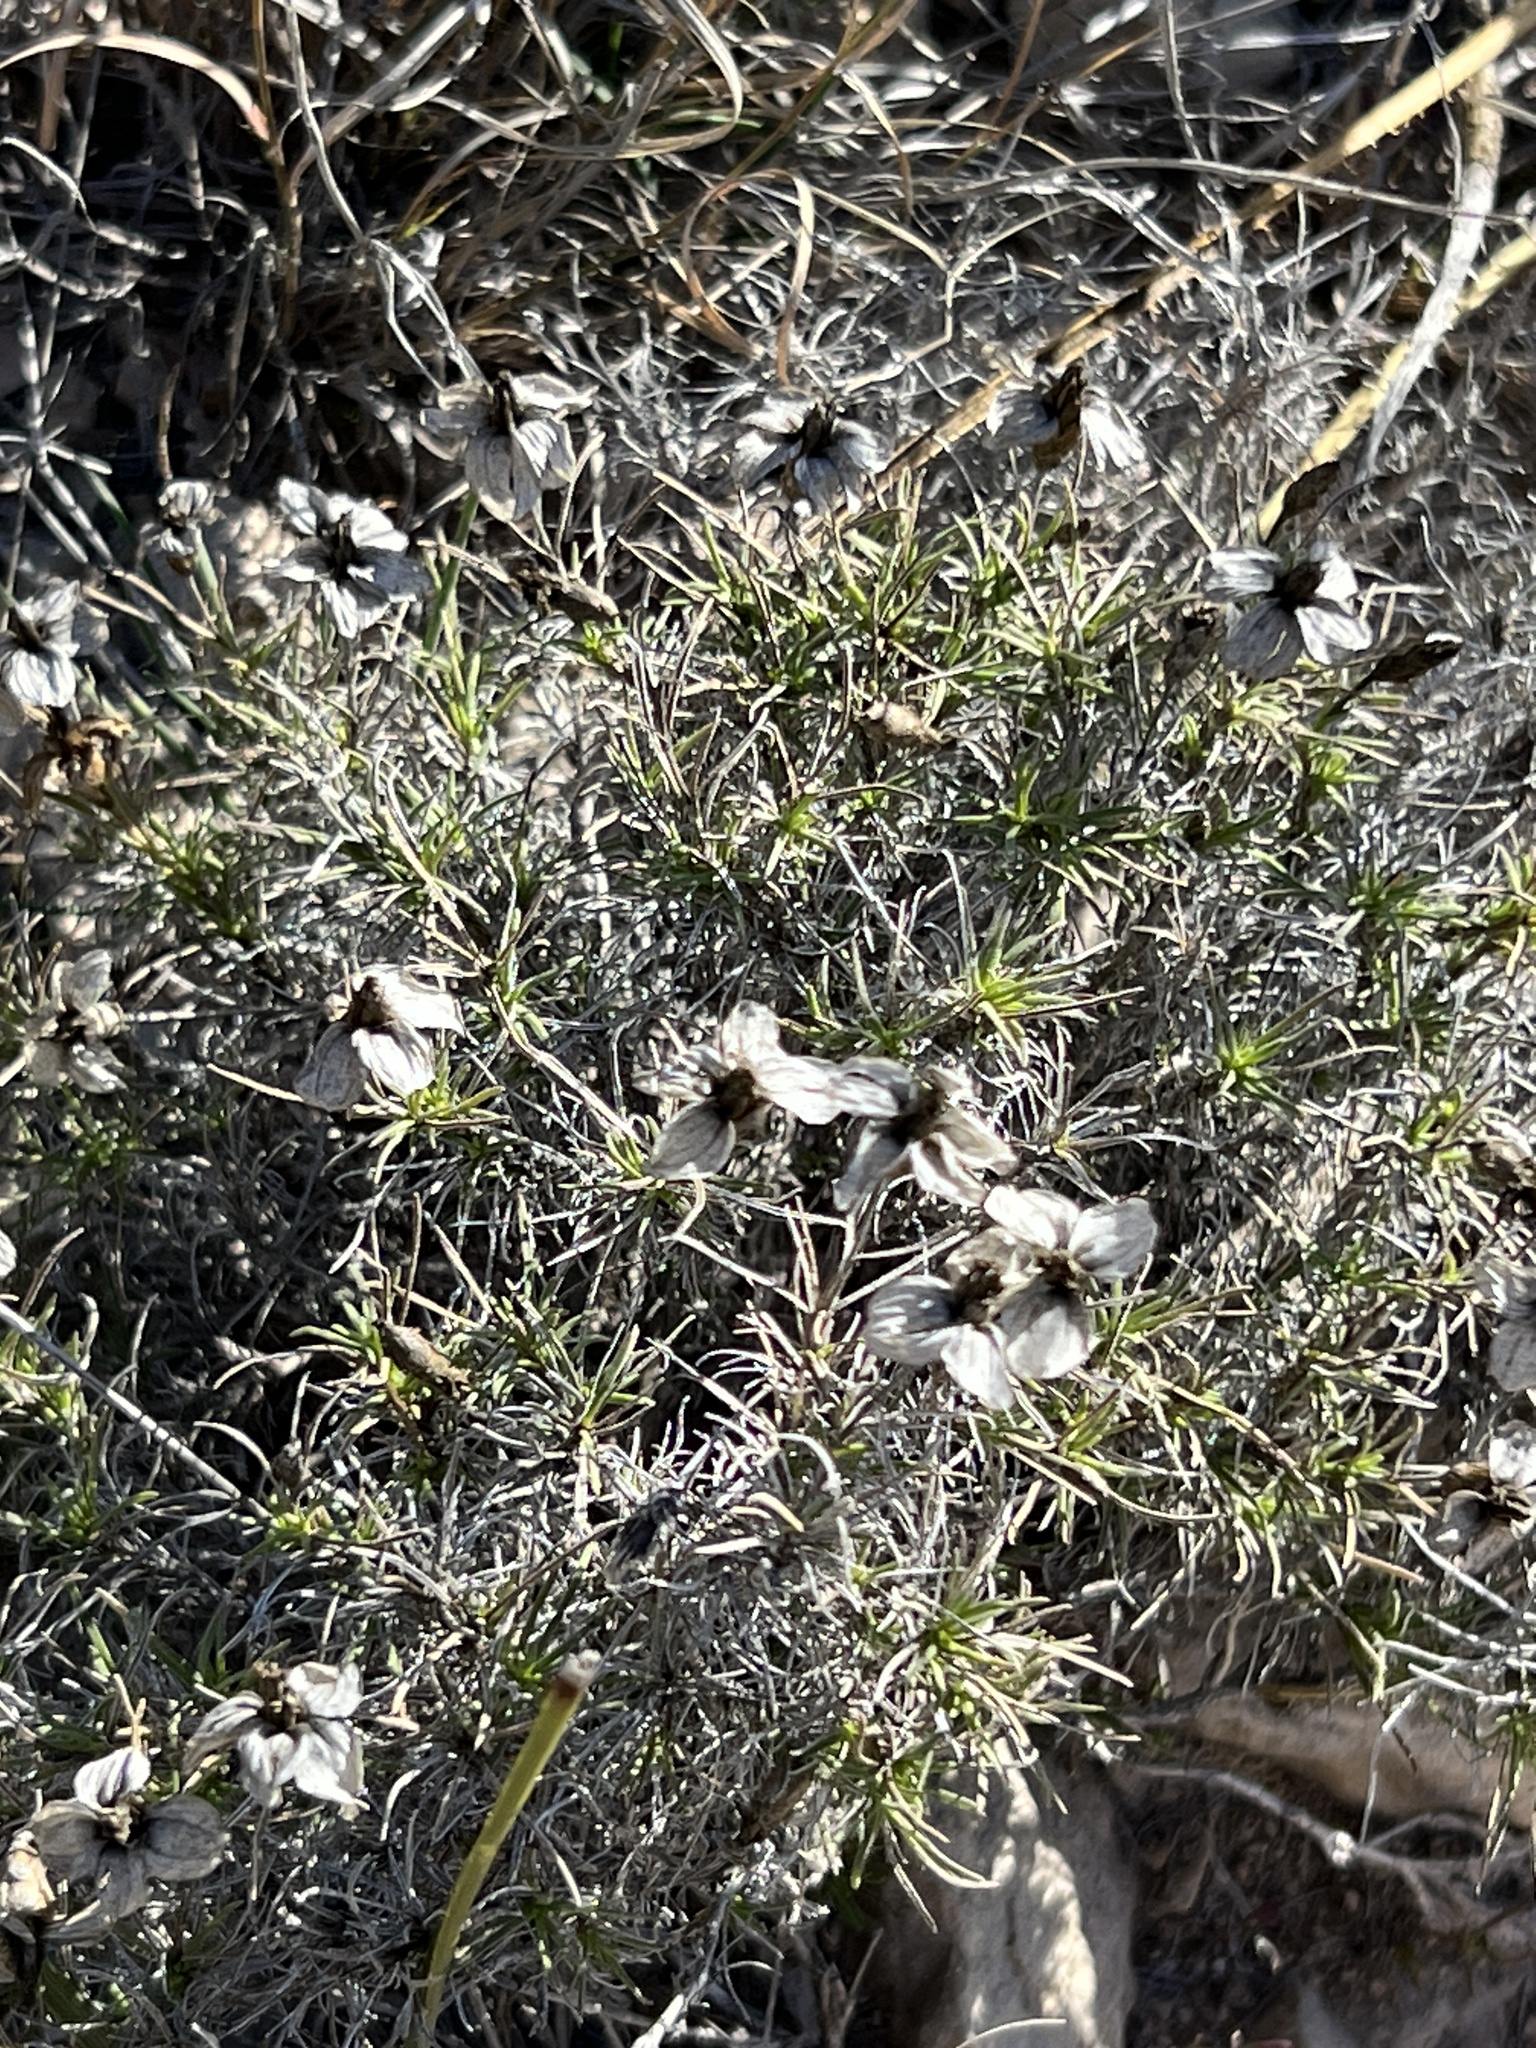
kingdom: Plantae
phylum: Tracheophyta
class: Magnoliopsida
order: Asterales
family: Asteraceae
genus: Zinnia
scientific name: Zinnia acerosa
